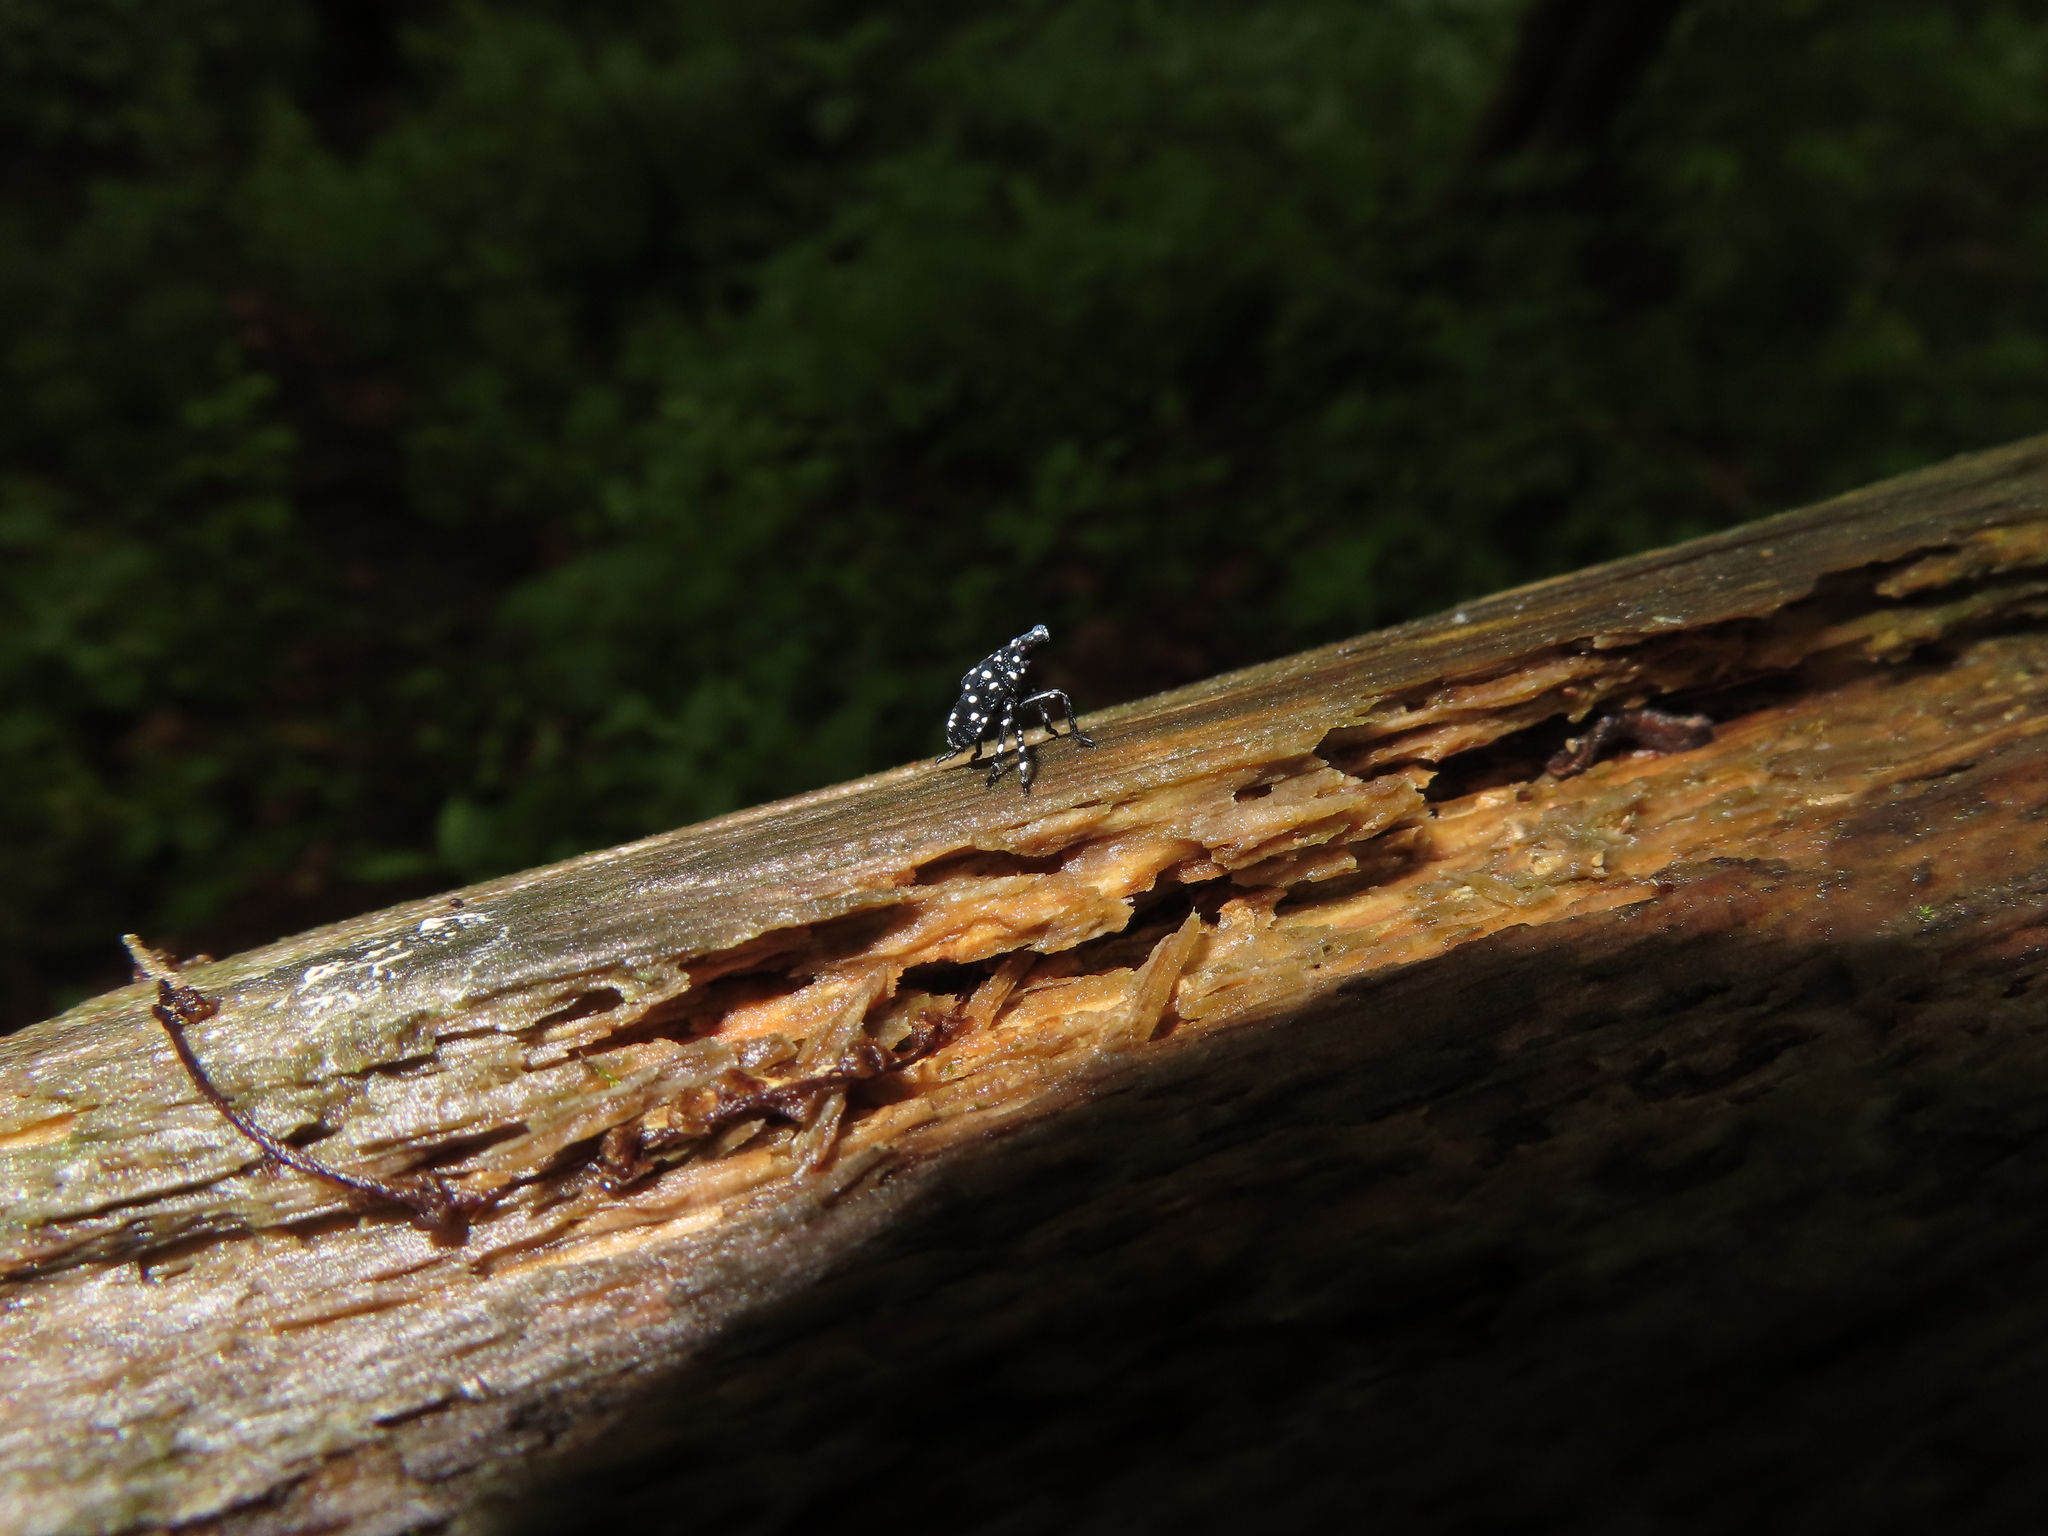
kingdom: Animalia
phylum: Arthropoda
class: Insecta
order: Hemiptera
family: Fulgoridae
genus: Lycorma
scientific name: Lycorma delicatula
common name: Spotted lanternfly
